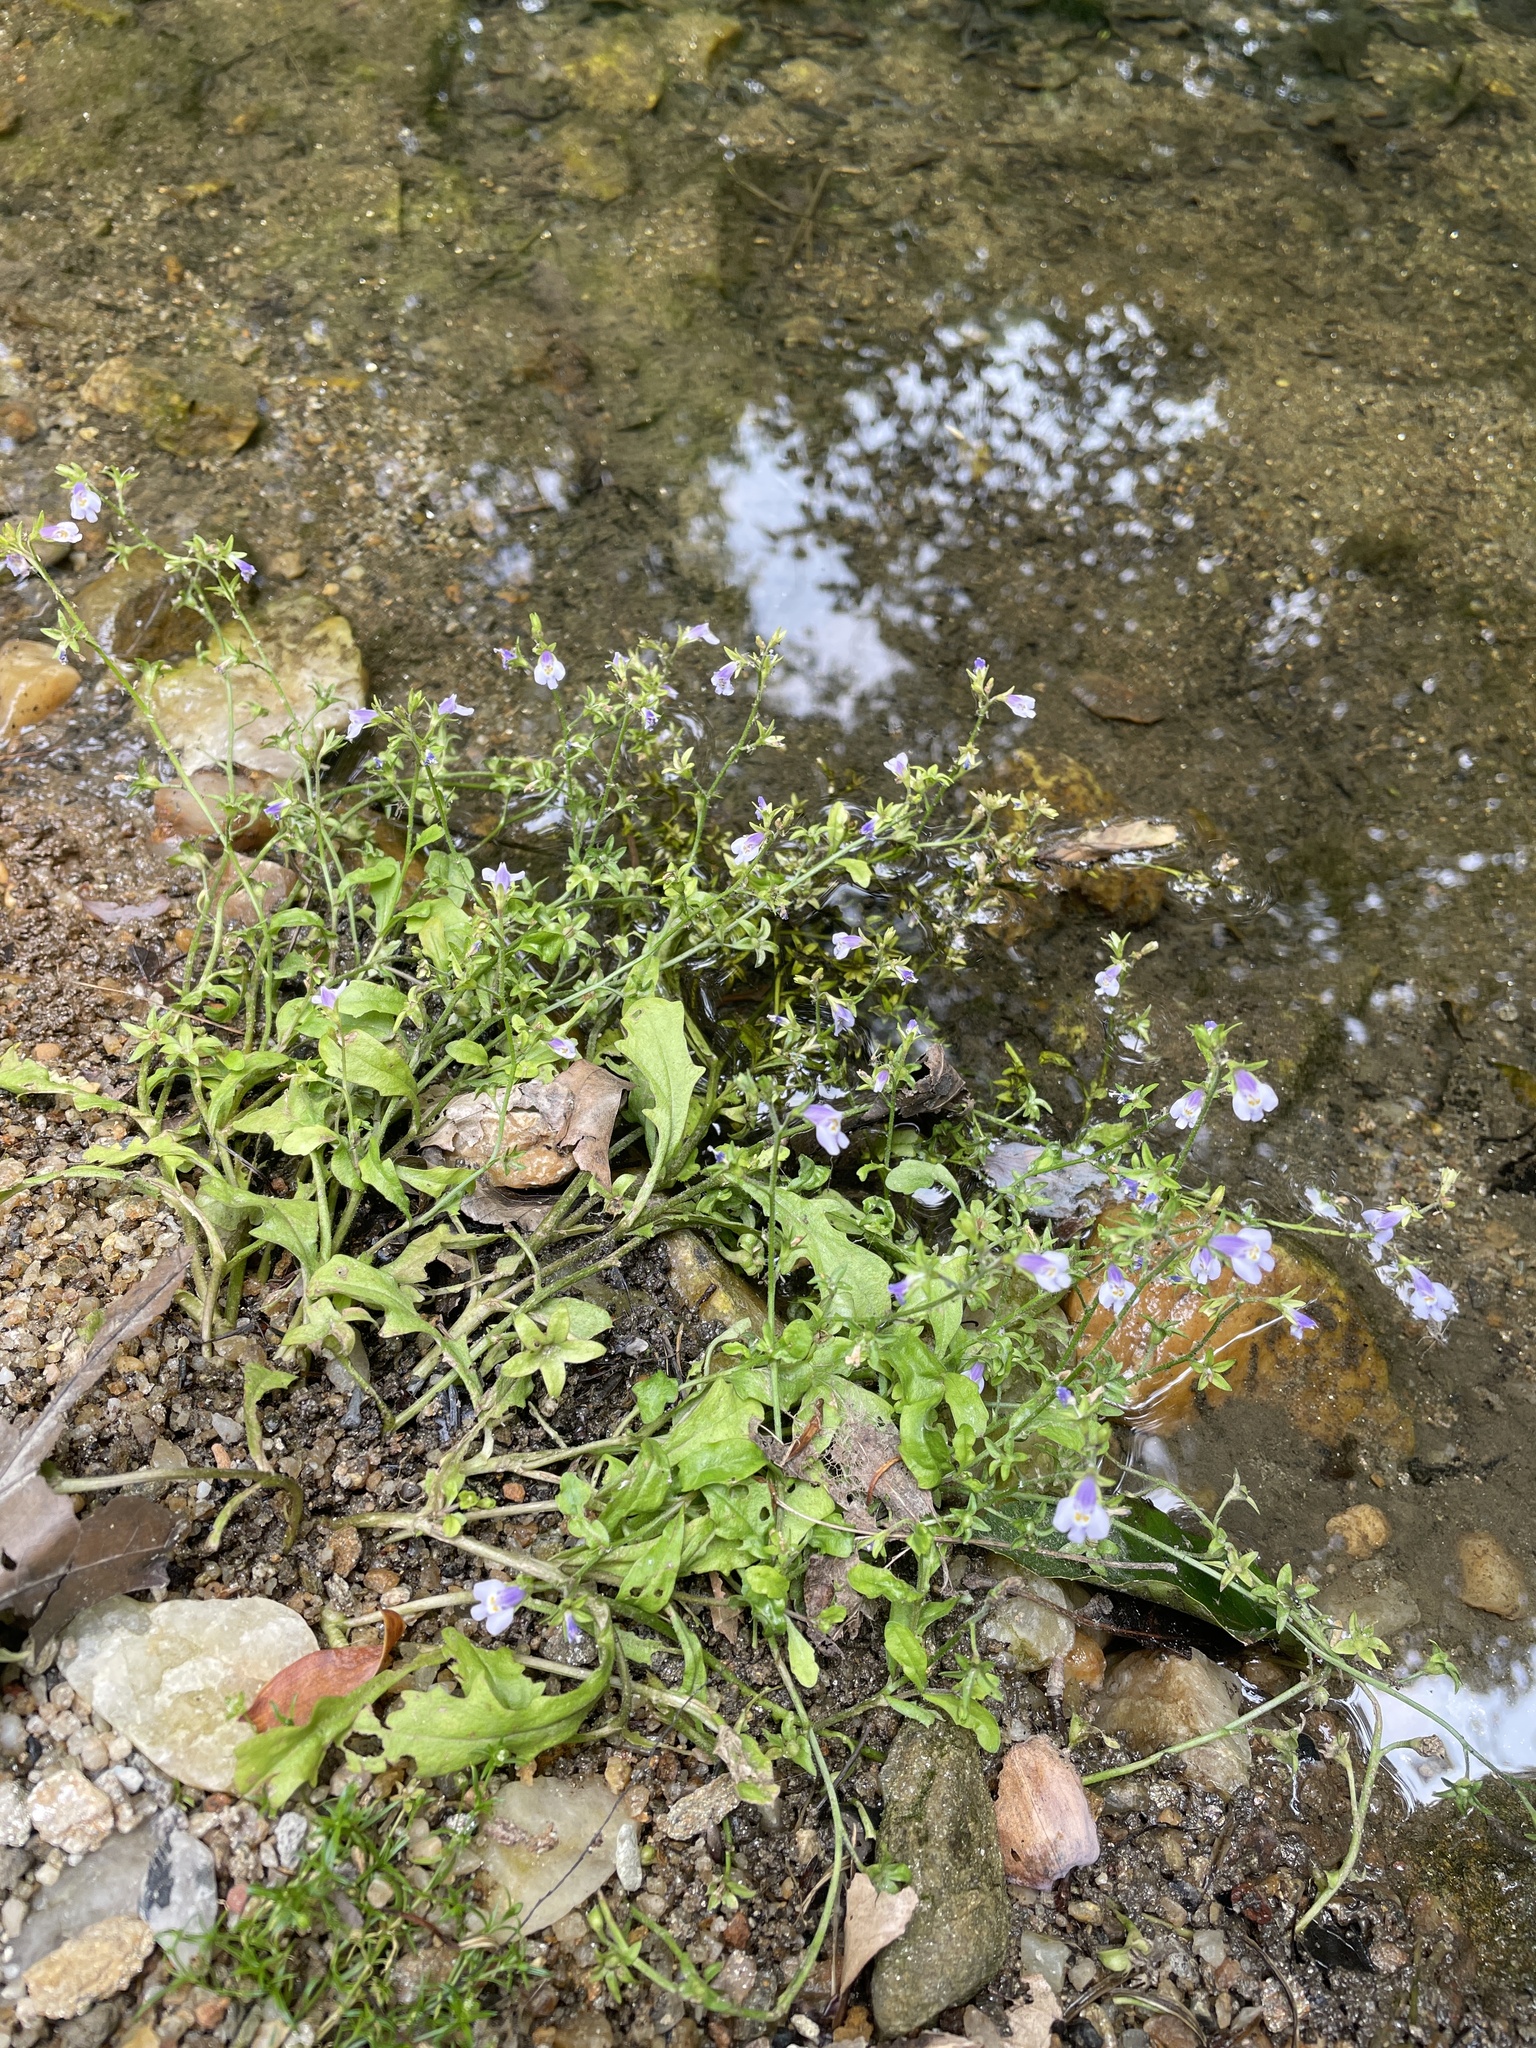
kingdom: Plantae
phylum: Tracheophyta
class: Magnoliopsida
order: Lamiales
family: Mazaceae
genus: Mazus
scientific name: Mazus pumilus
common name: Japanese mazus
